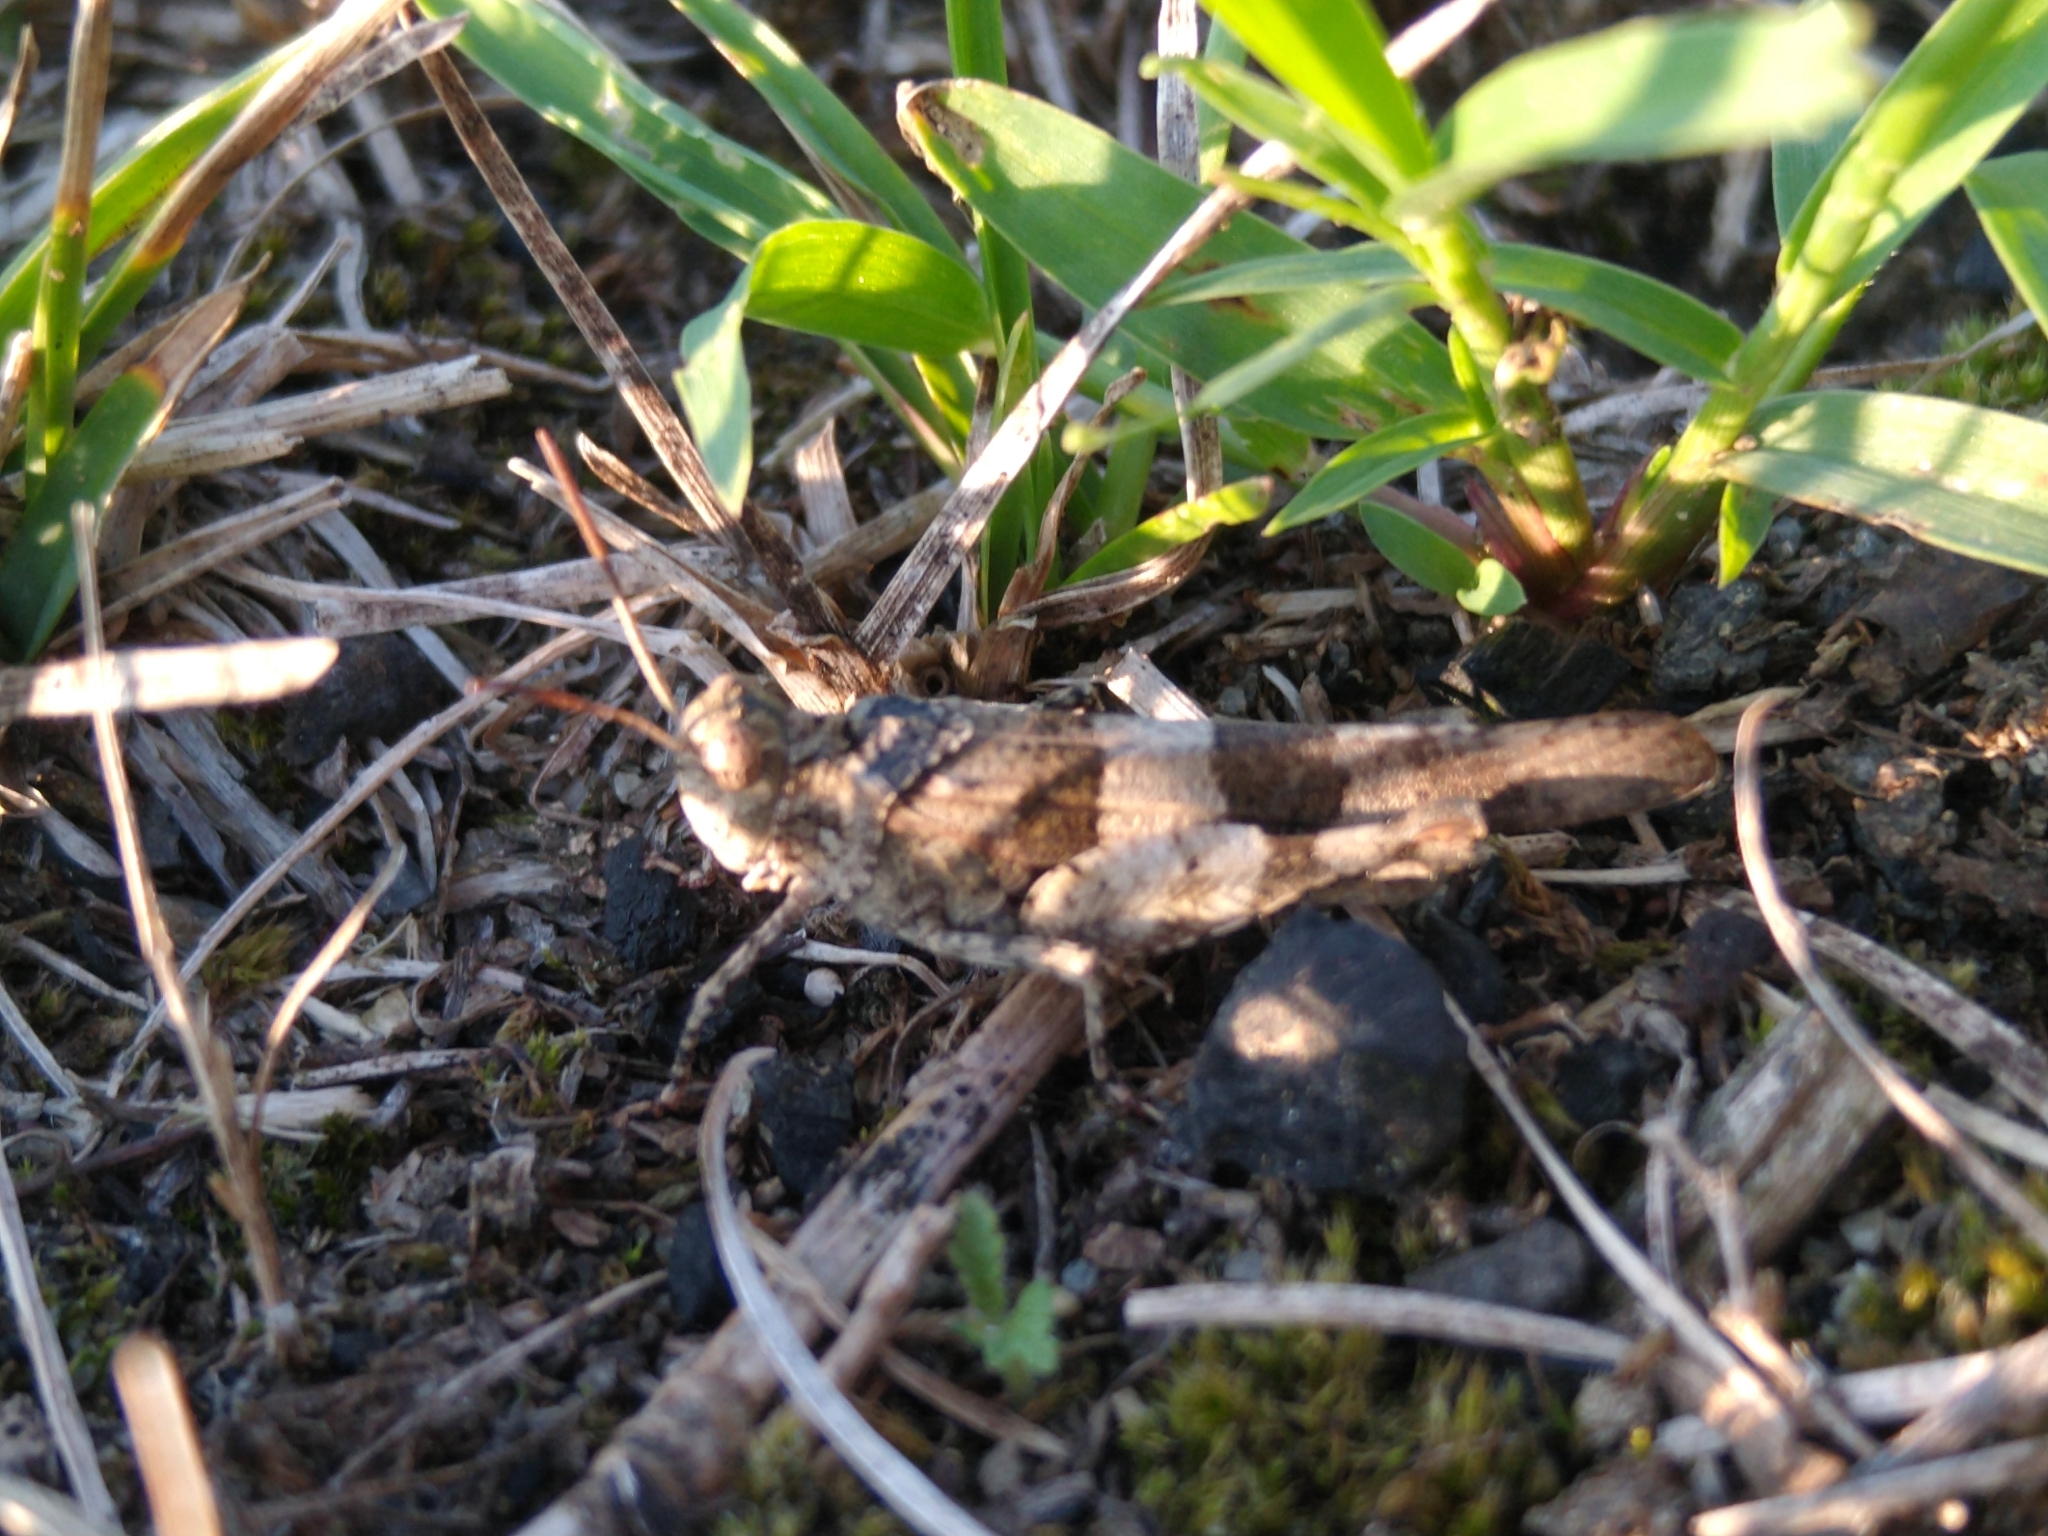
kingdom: Animalia
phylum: Arthropoda
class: Insecta
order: Orthoptera
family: Acrididae
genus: Oedipoda
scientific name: Oedipoda caerulescens
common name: Blue-winged grasshopper
